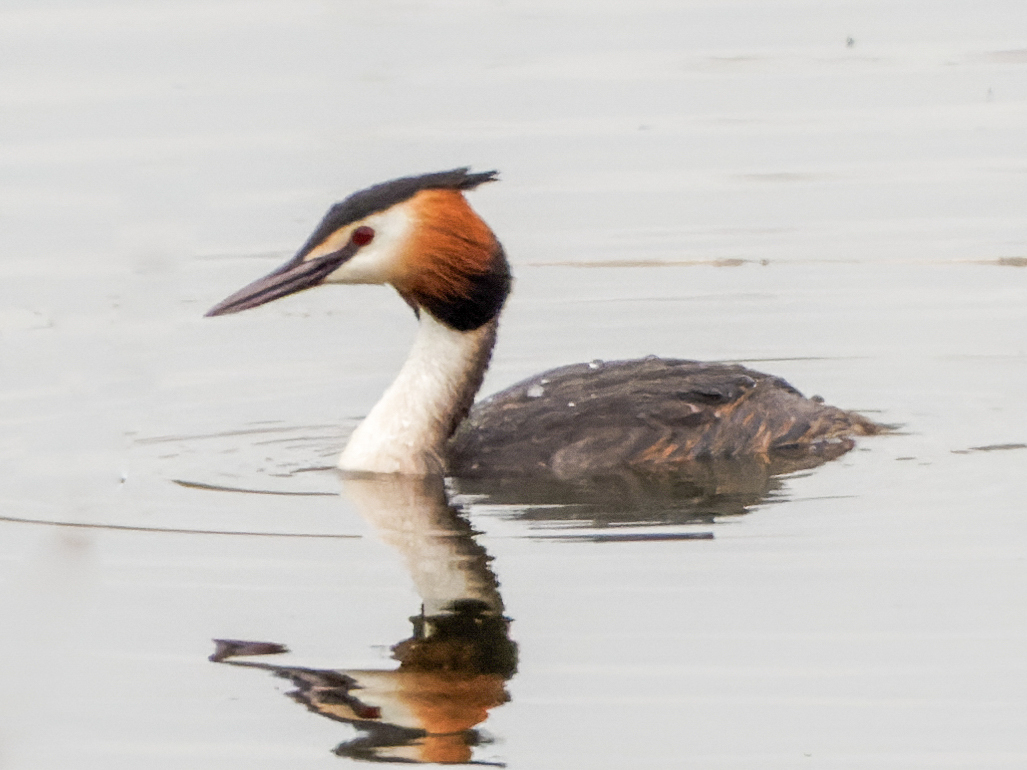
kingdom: Animalia
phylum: Chordata
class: Aves
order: Podicipediformes
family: Podicipedidae
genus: Podiceps
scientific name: Podiceps cristatus
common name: Great crested grebe
